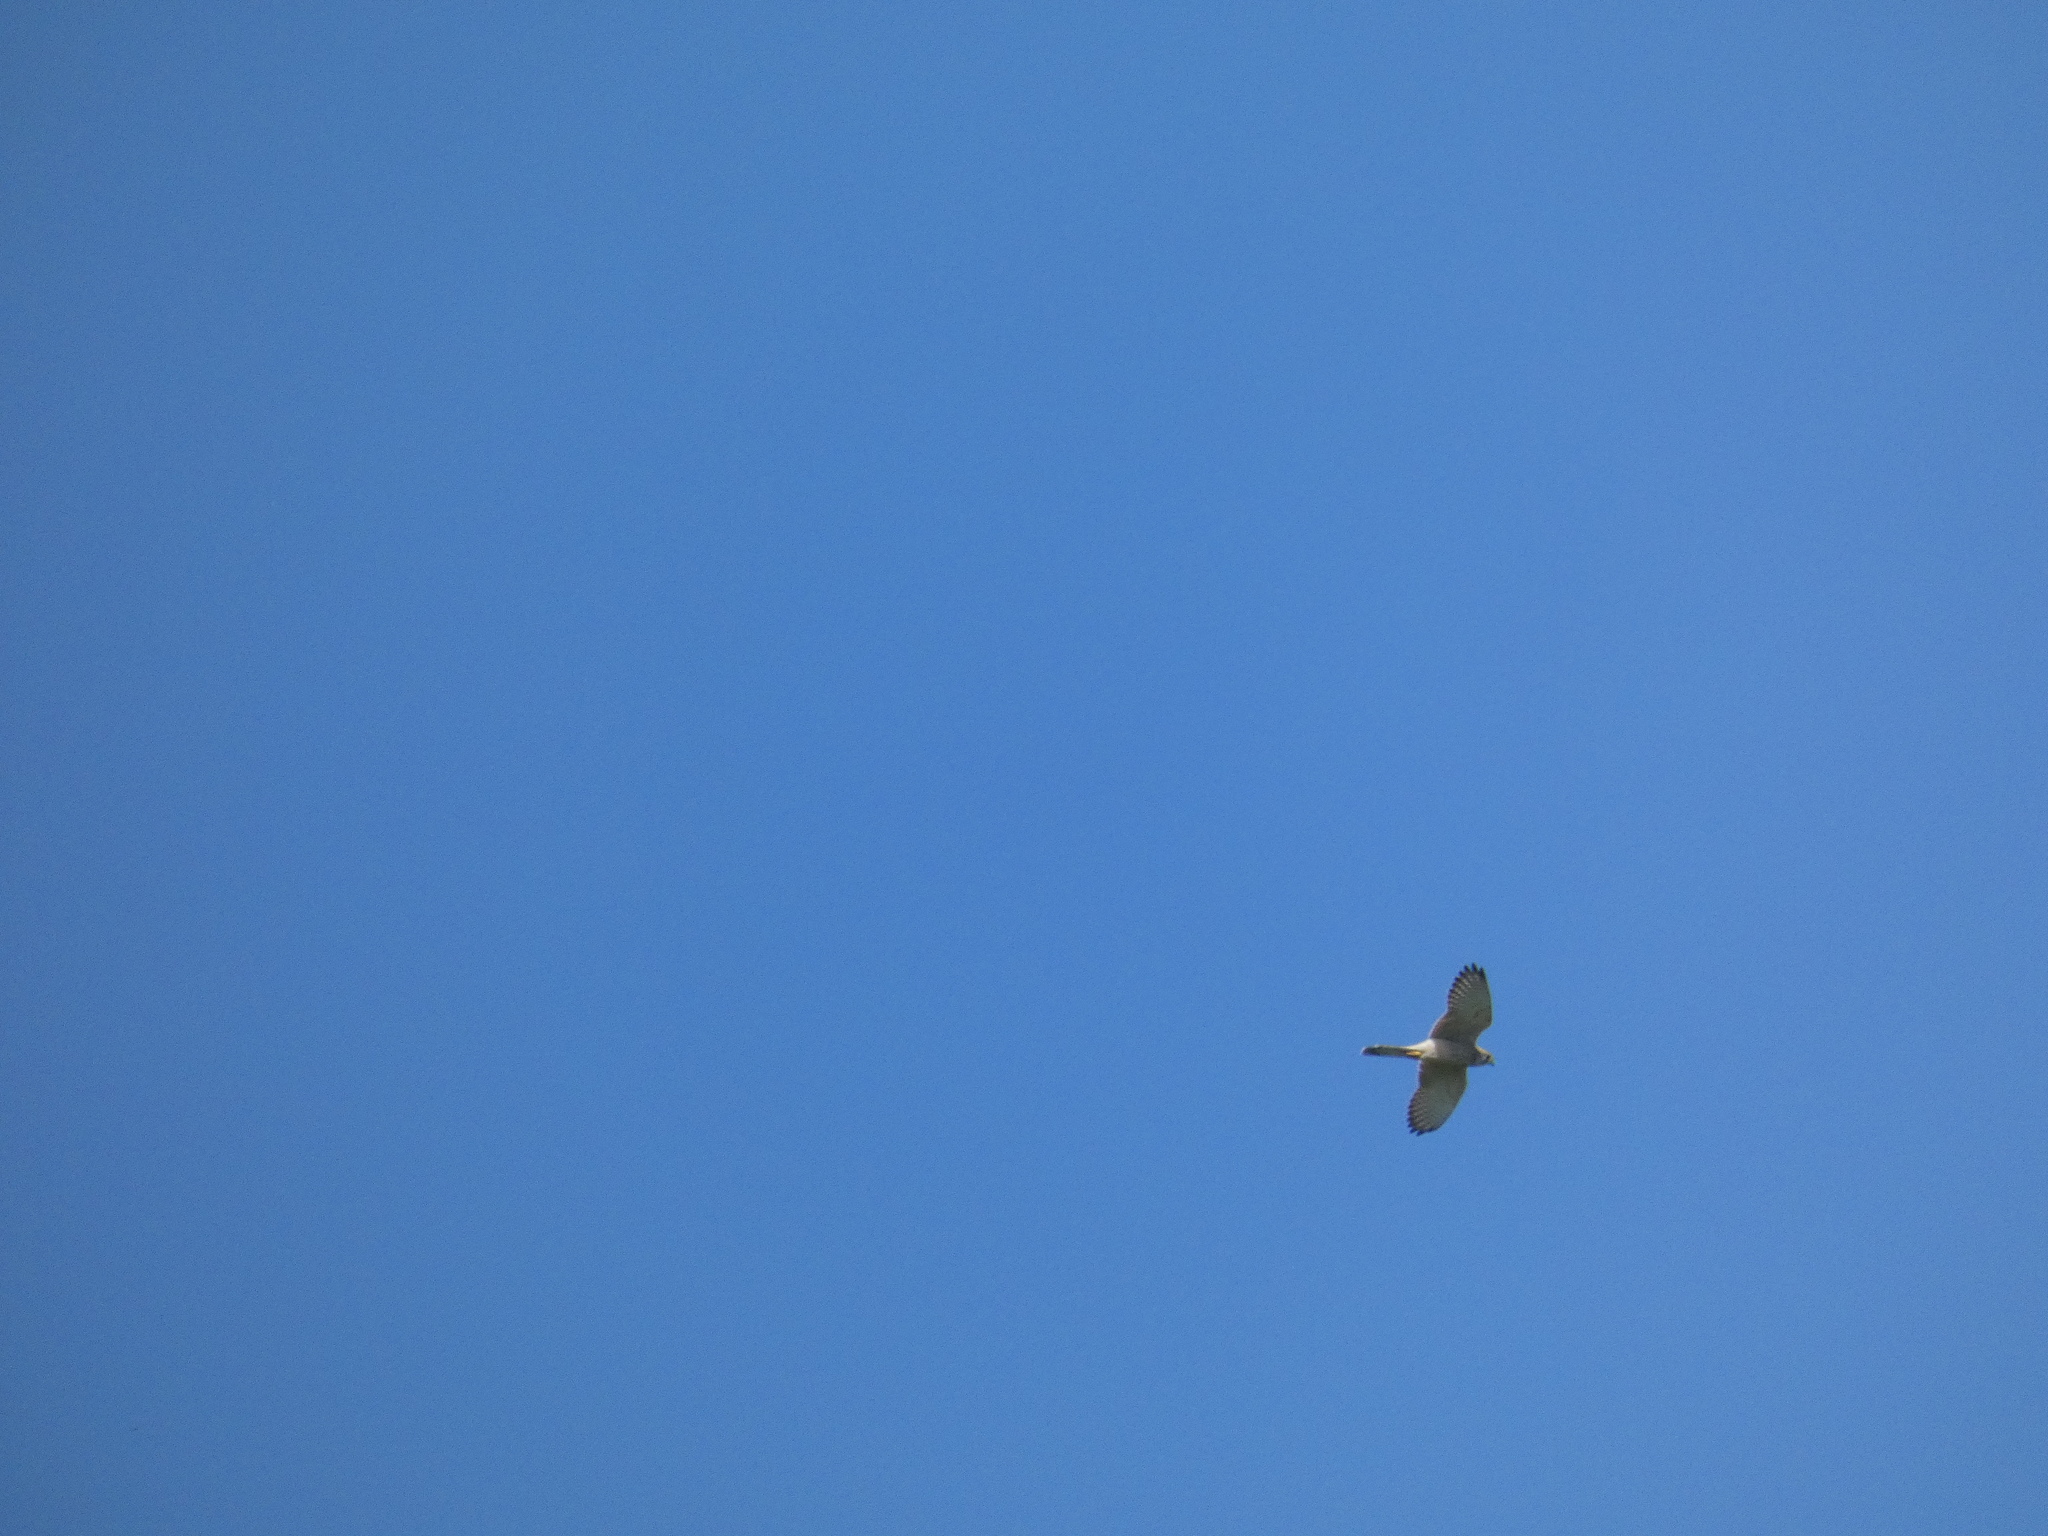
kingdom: Animalia
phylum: Chordata
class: Aves
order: Falconiformes
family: Falconidae
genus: Falco
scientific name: Falco tinnunculus
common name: Common kestrel
